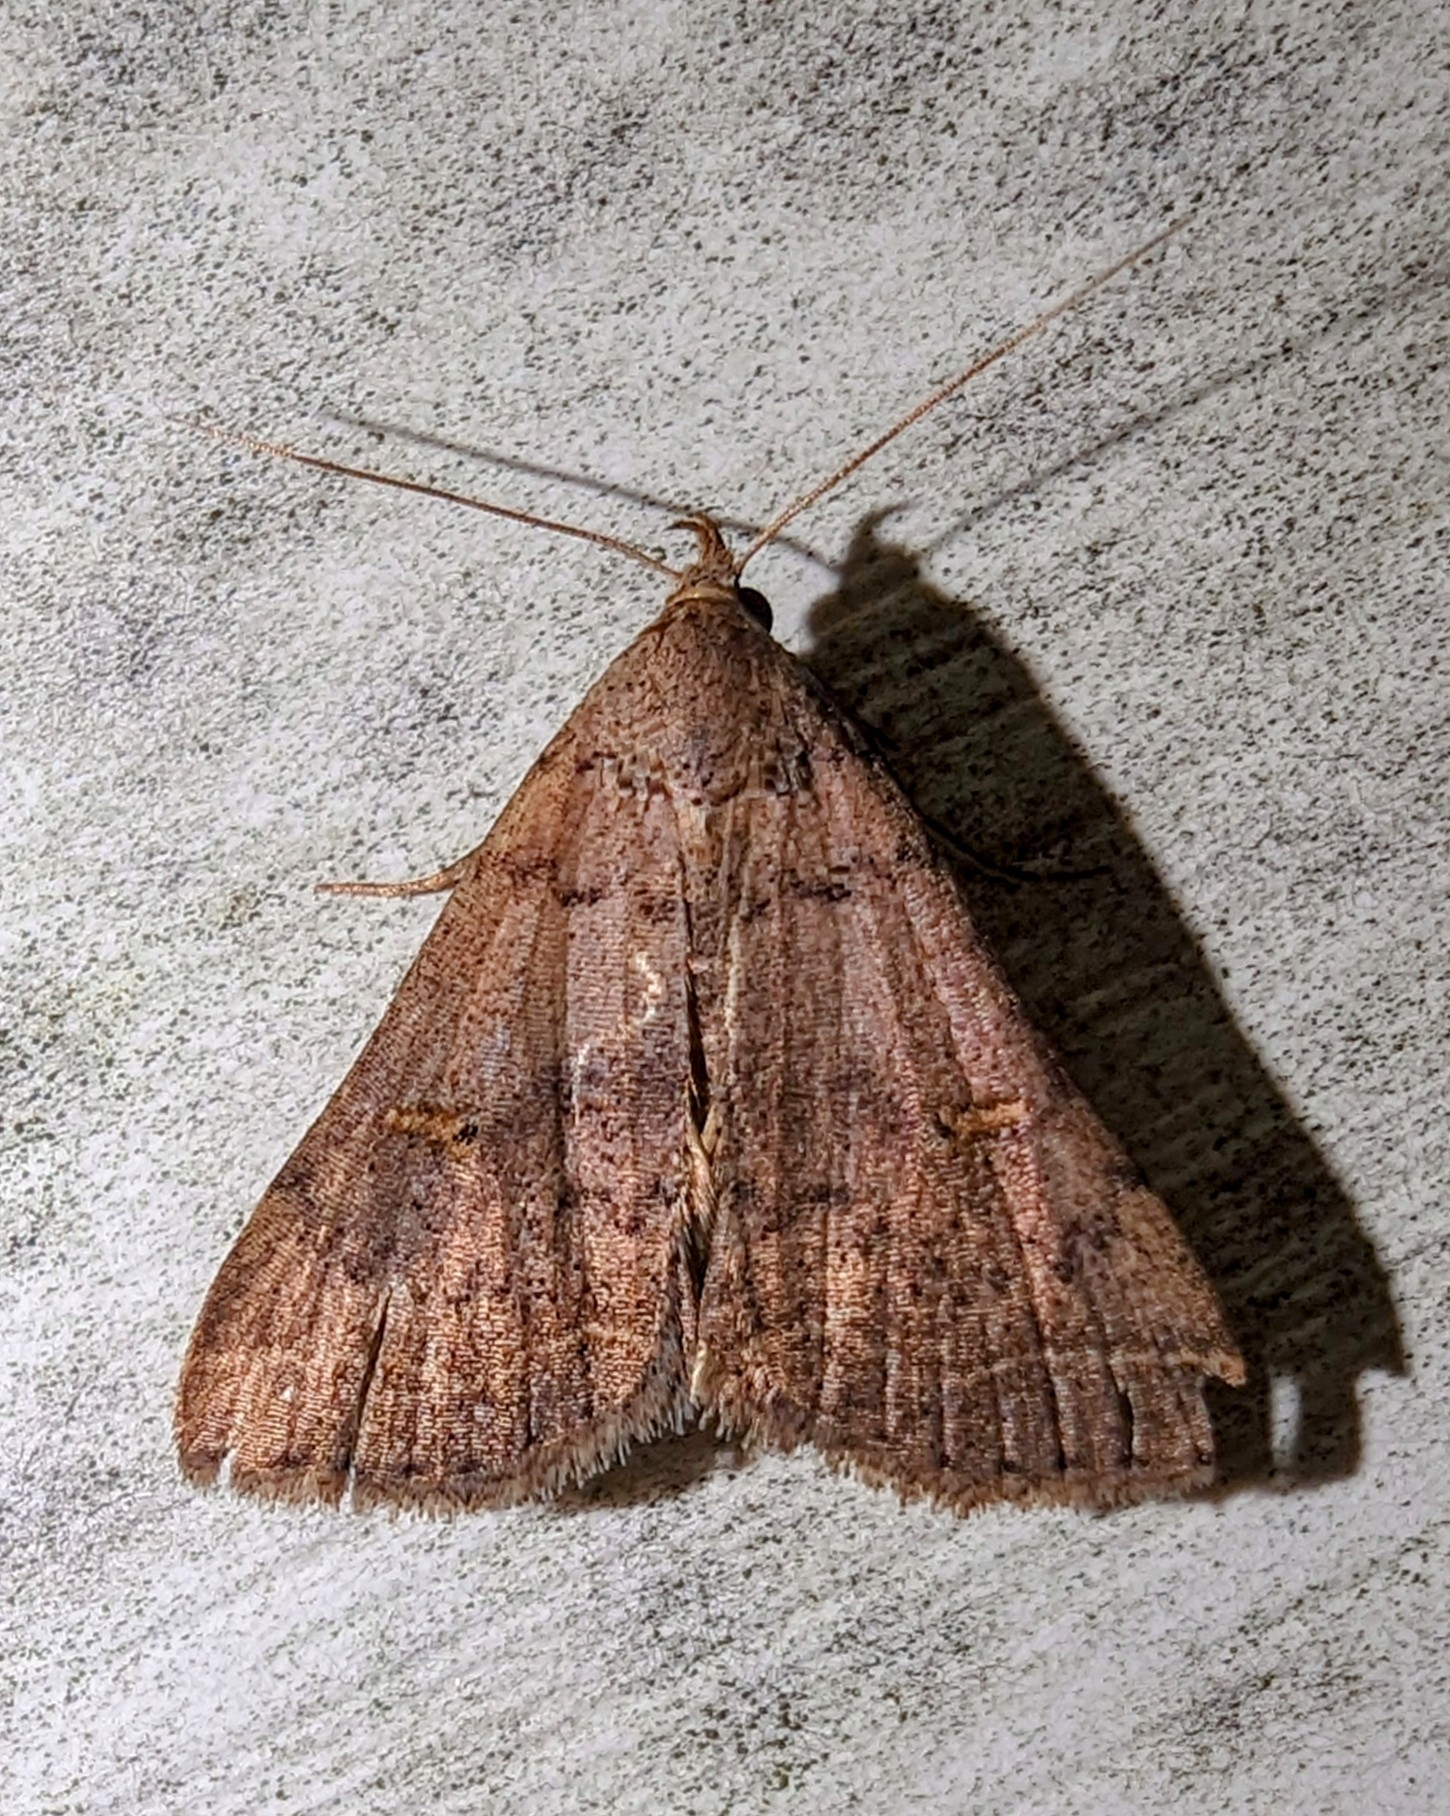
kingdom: Animalia
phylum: Arthropoda
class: Insecta
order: Lepidoptera
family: Erebidae
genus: Bleptina
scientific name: Bleptina caradrinalis
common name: Bent-winged owlet
